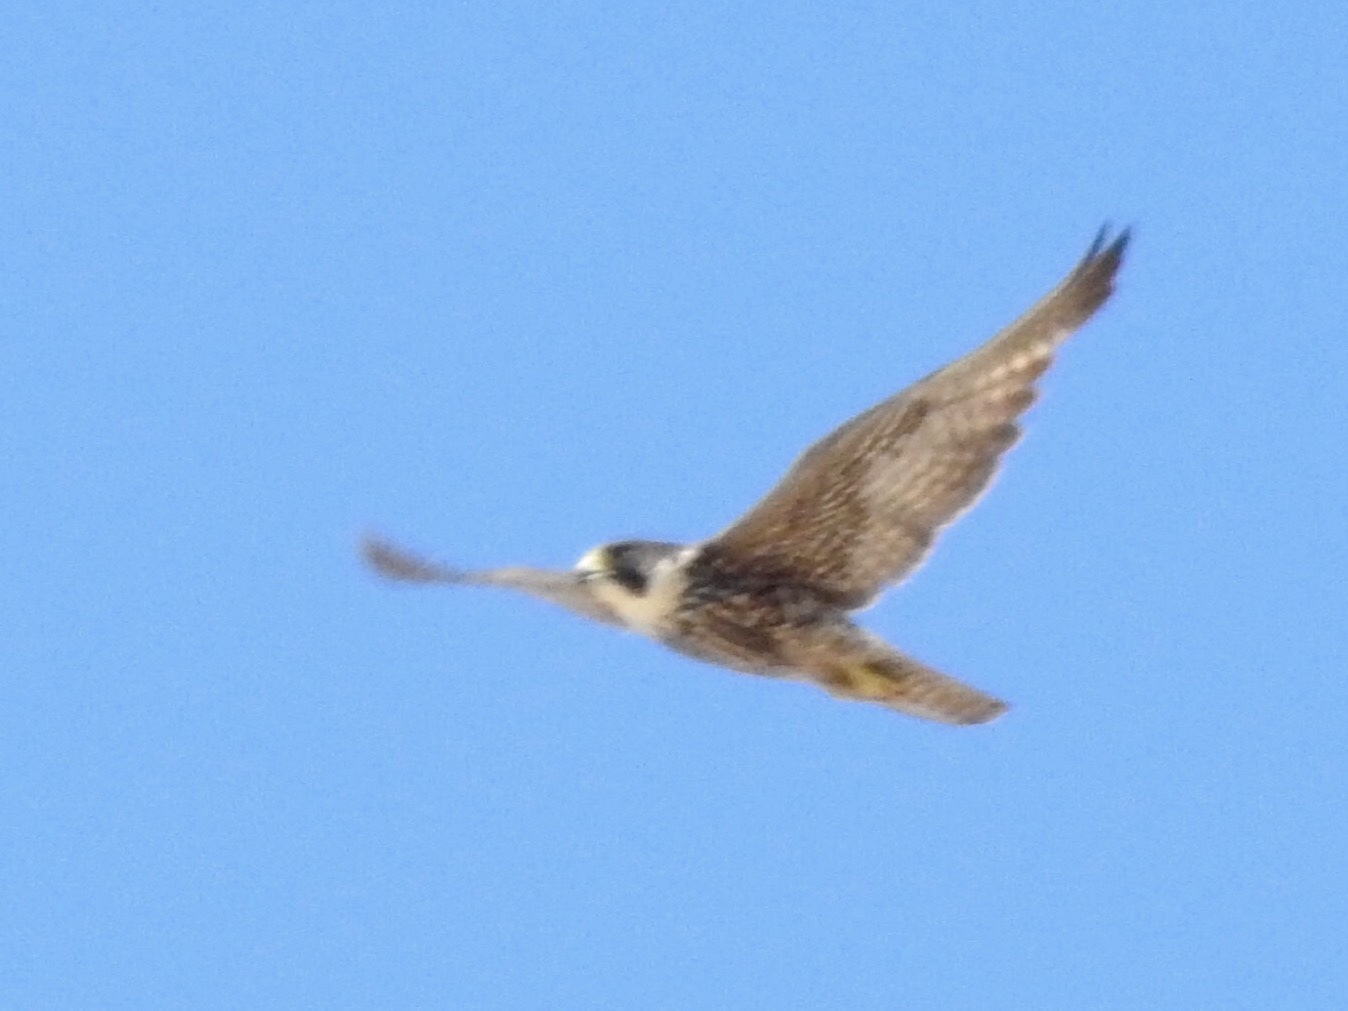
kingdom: Animalia
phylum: Chordata
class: Aves
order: Falconiformes
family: Falconidae
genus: Falco
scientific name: Falco peregrinus
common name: Peregrine falcon
